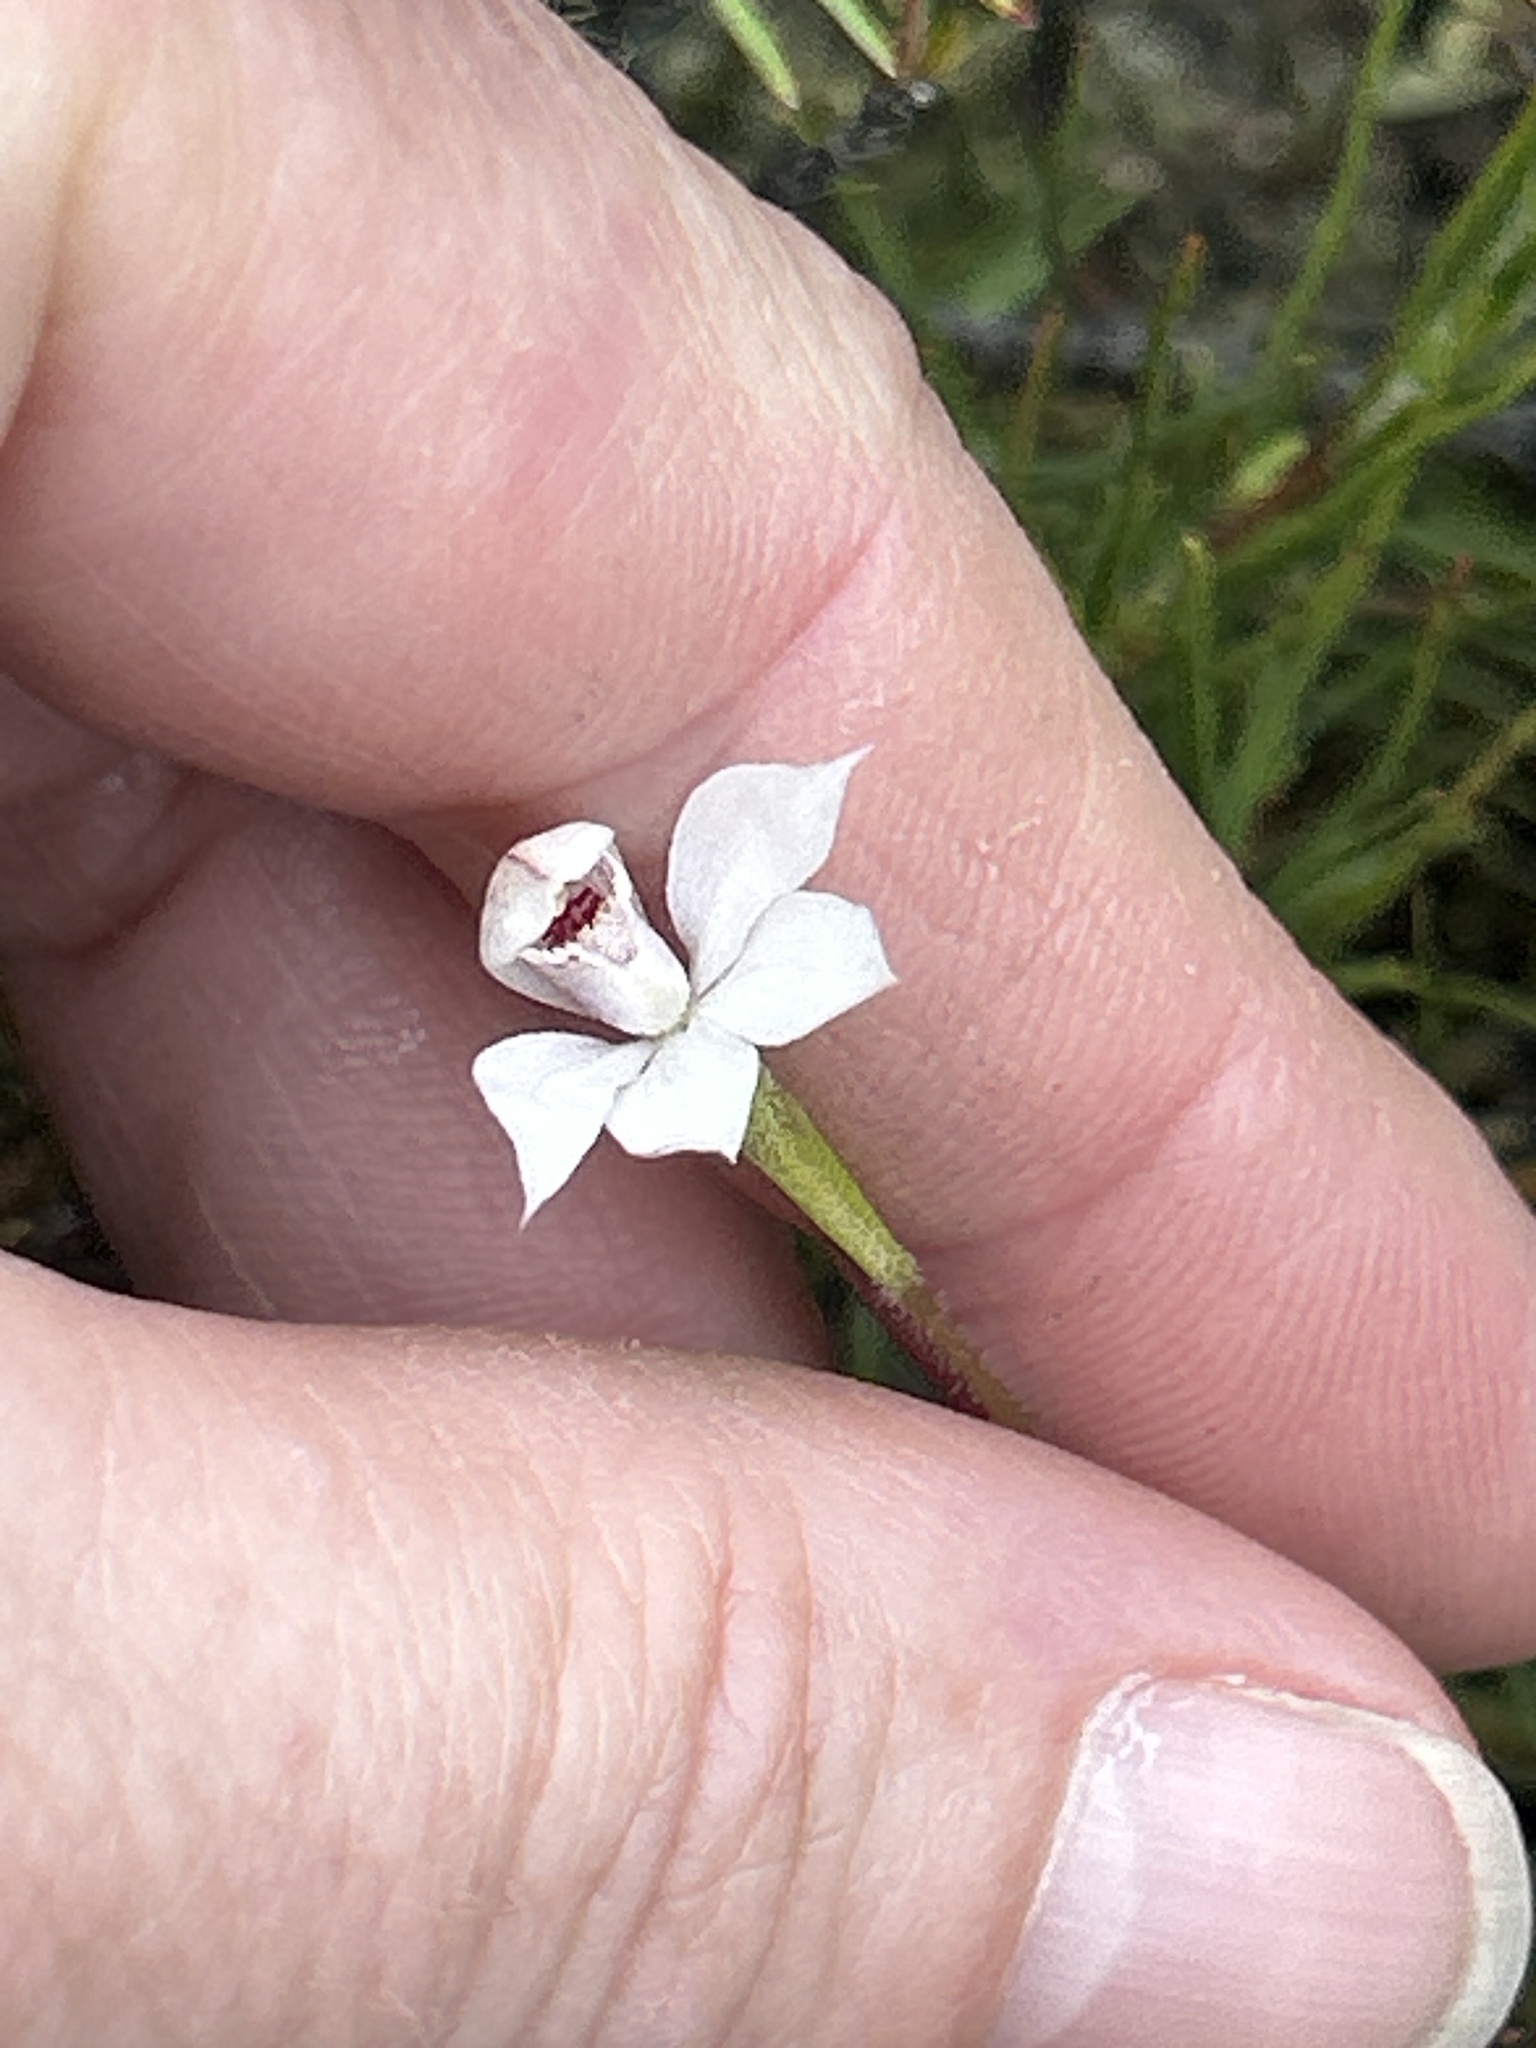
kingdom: Plantae
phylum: Tracheophyta
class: Liliopsida
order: Asparagales
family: Orchidaceae
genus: Caladenia
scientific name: Caladenia lyallii
